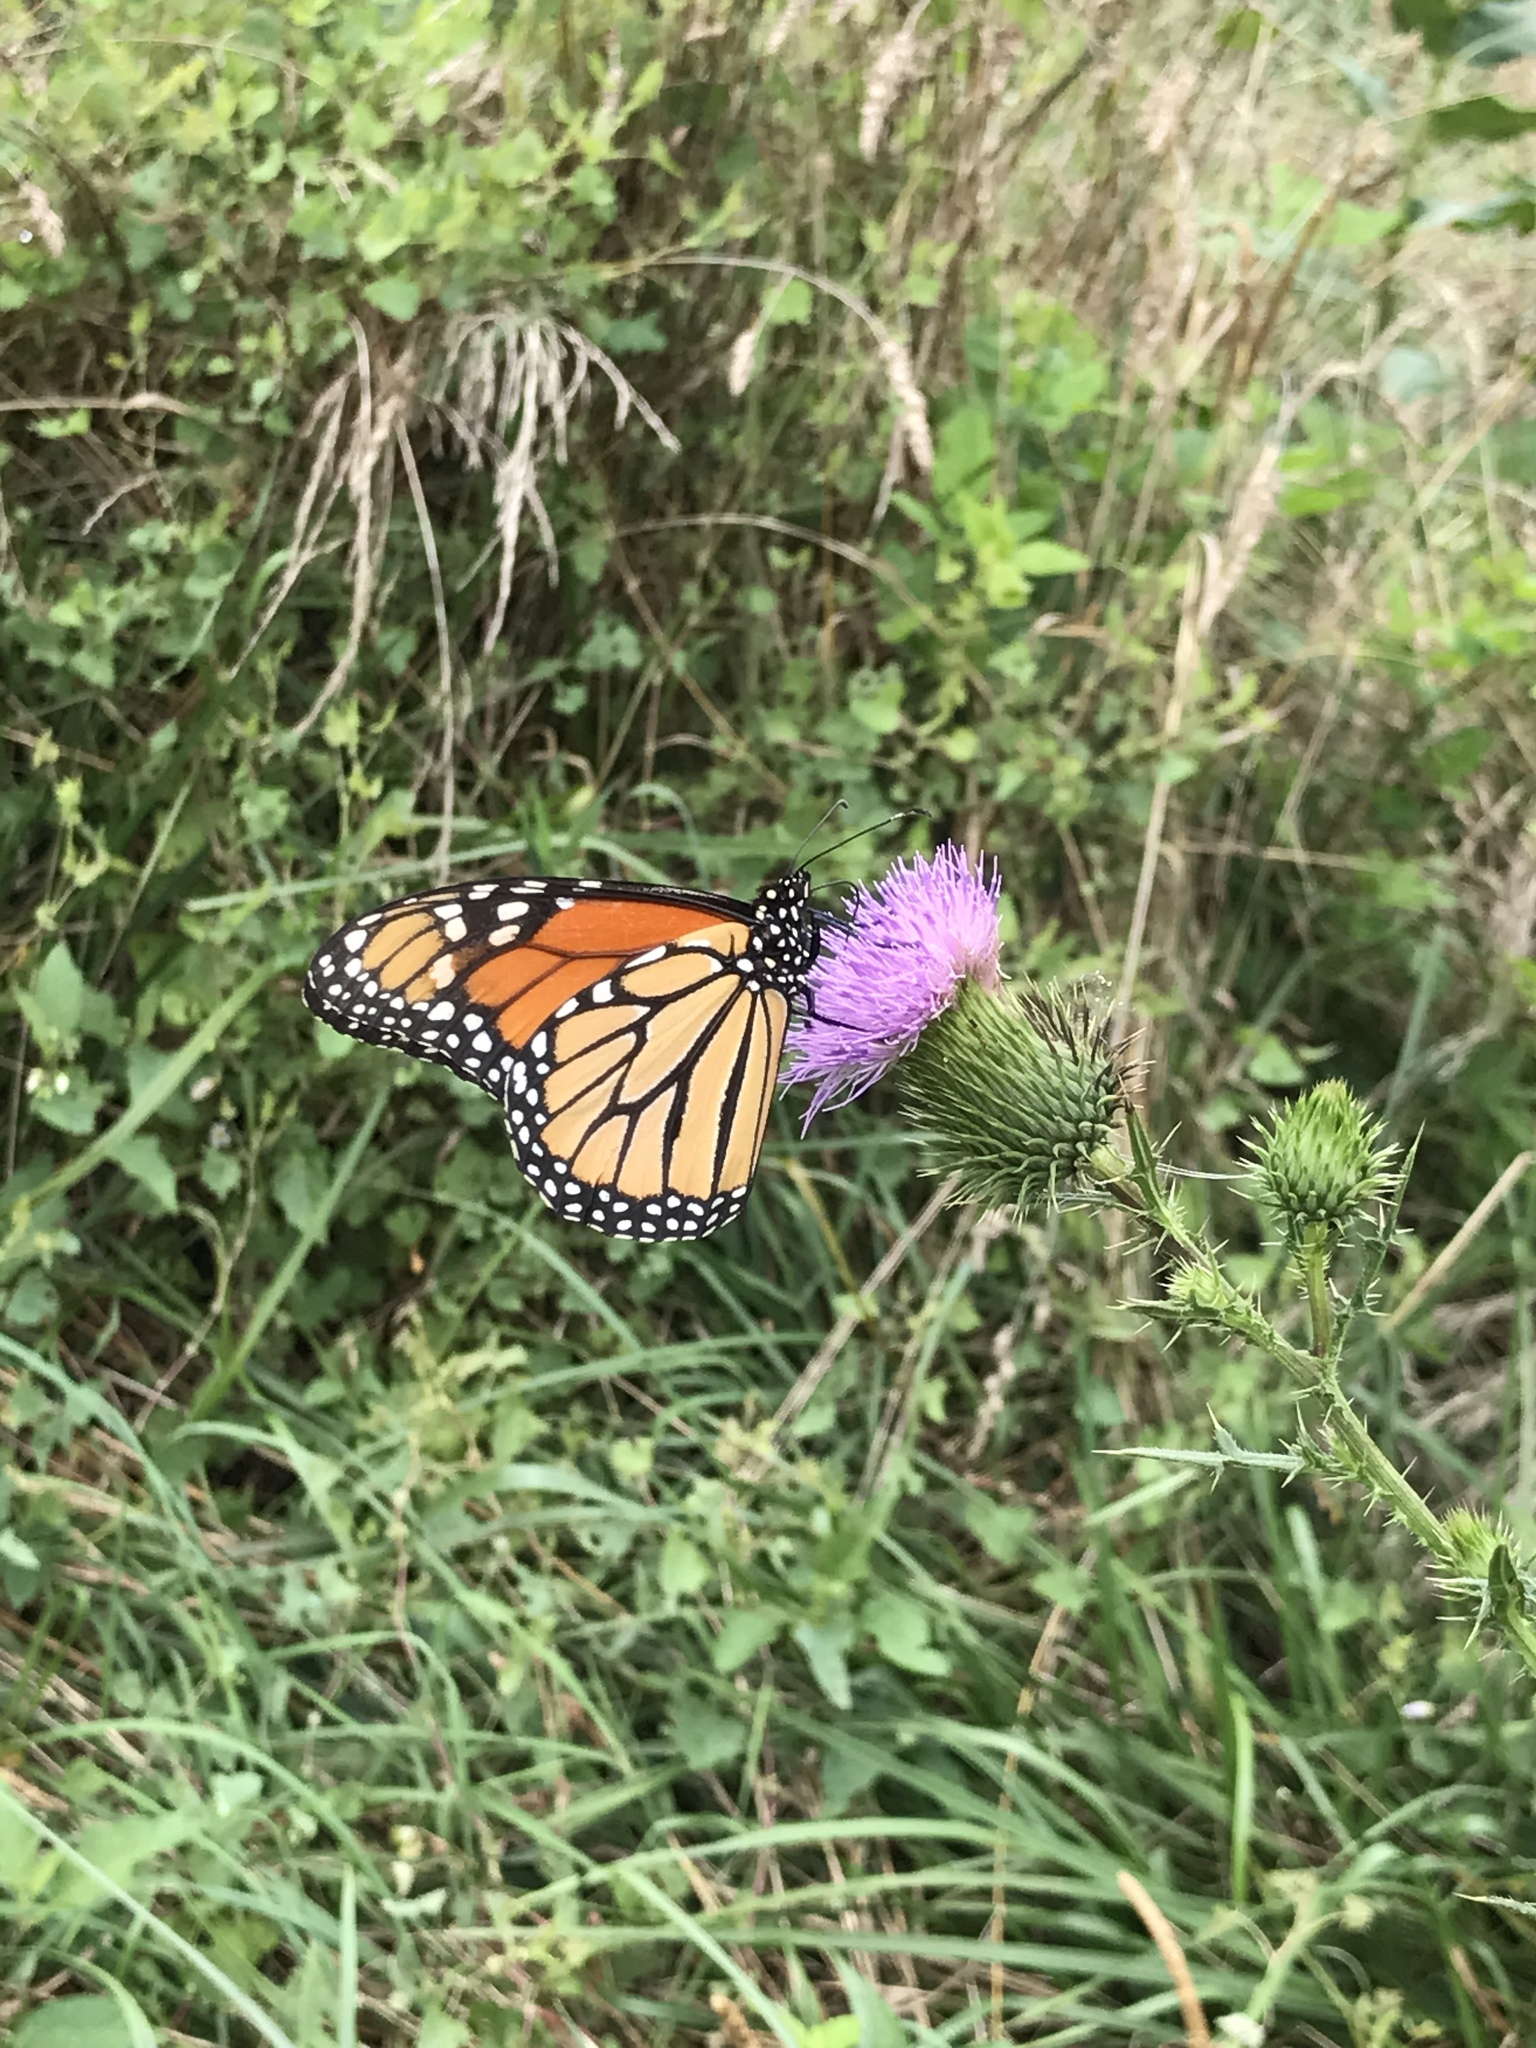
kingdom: Animalia
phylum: Arthropoda
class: Insecta
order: Lepidoptera
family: Nymphalidae
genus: Danaus
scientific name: Danaus plexippus
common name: Monarch
